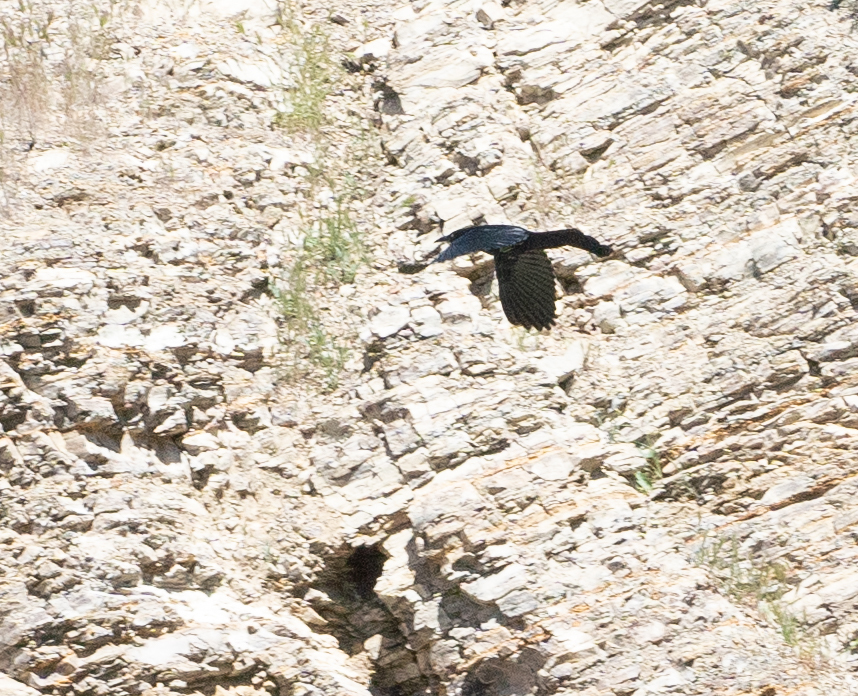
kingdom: Animalia
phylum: Chordata
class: Aves
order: Passeriformes
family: Icteridae
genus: Quiscalus
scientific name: Quiscalus mexicanus
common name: Great-tailed grackle
